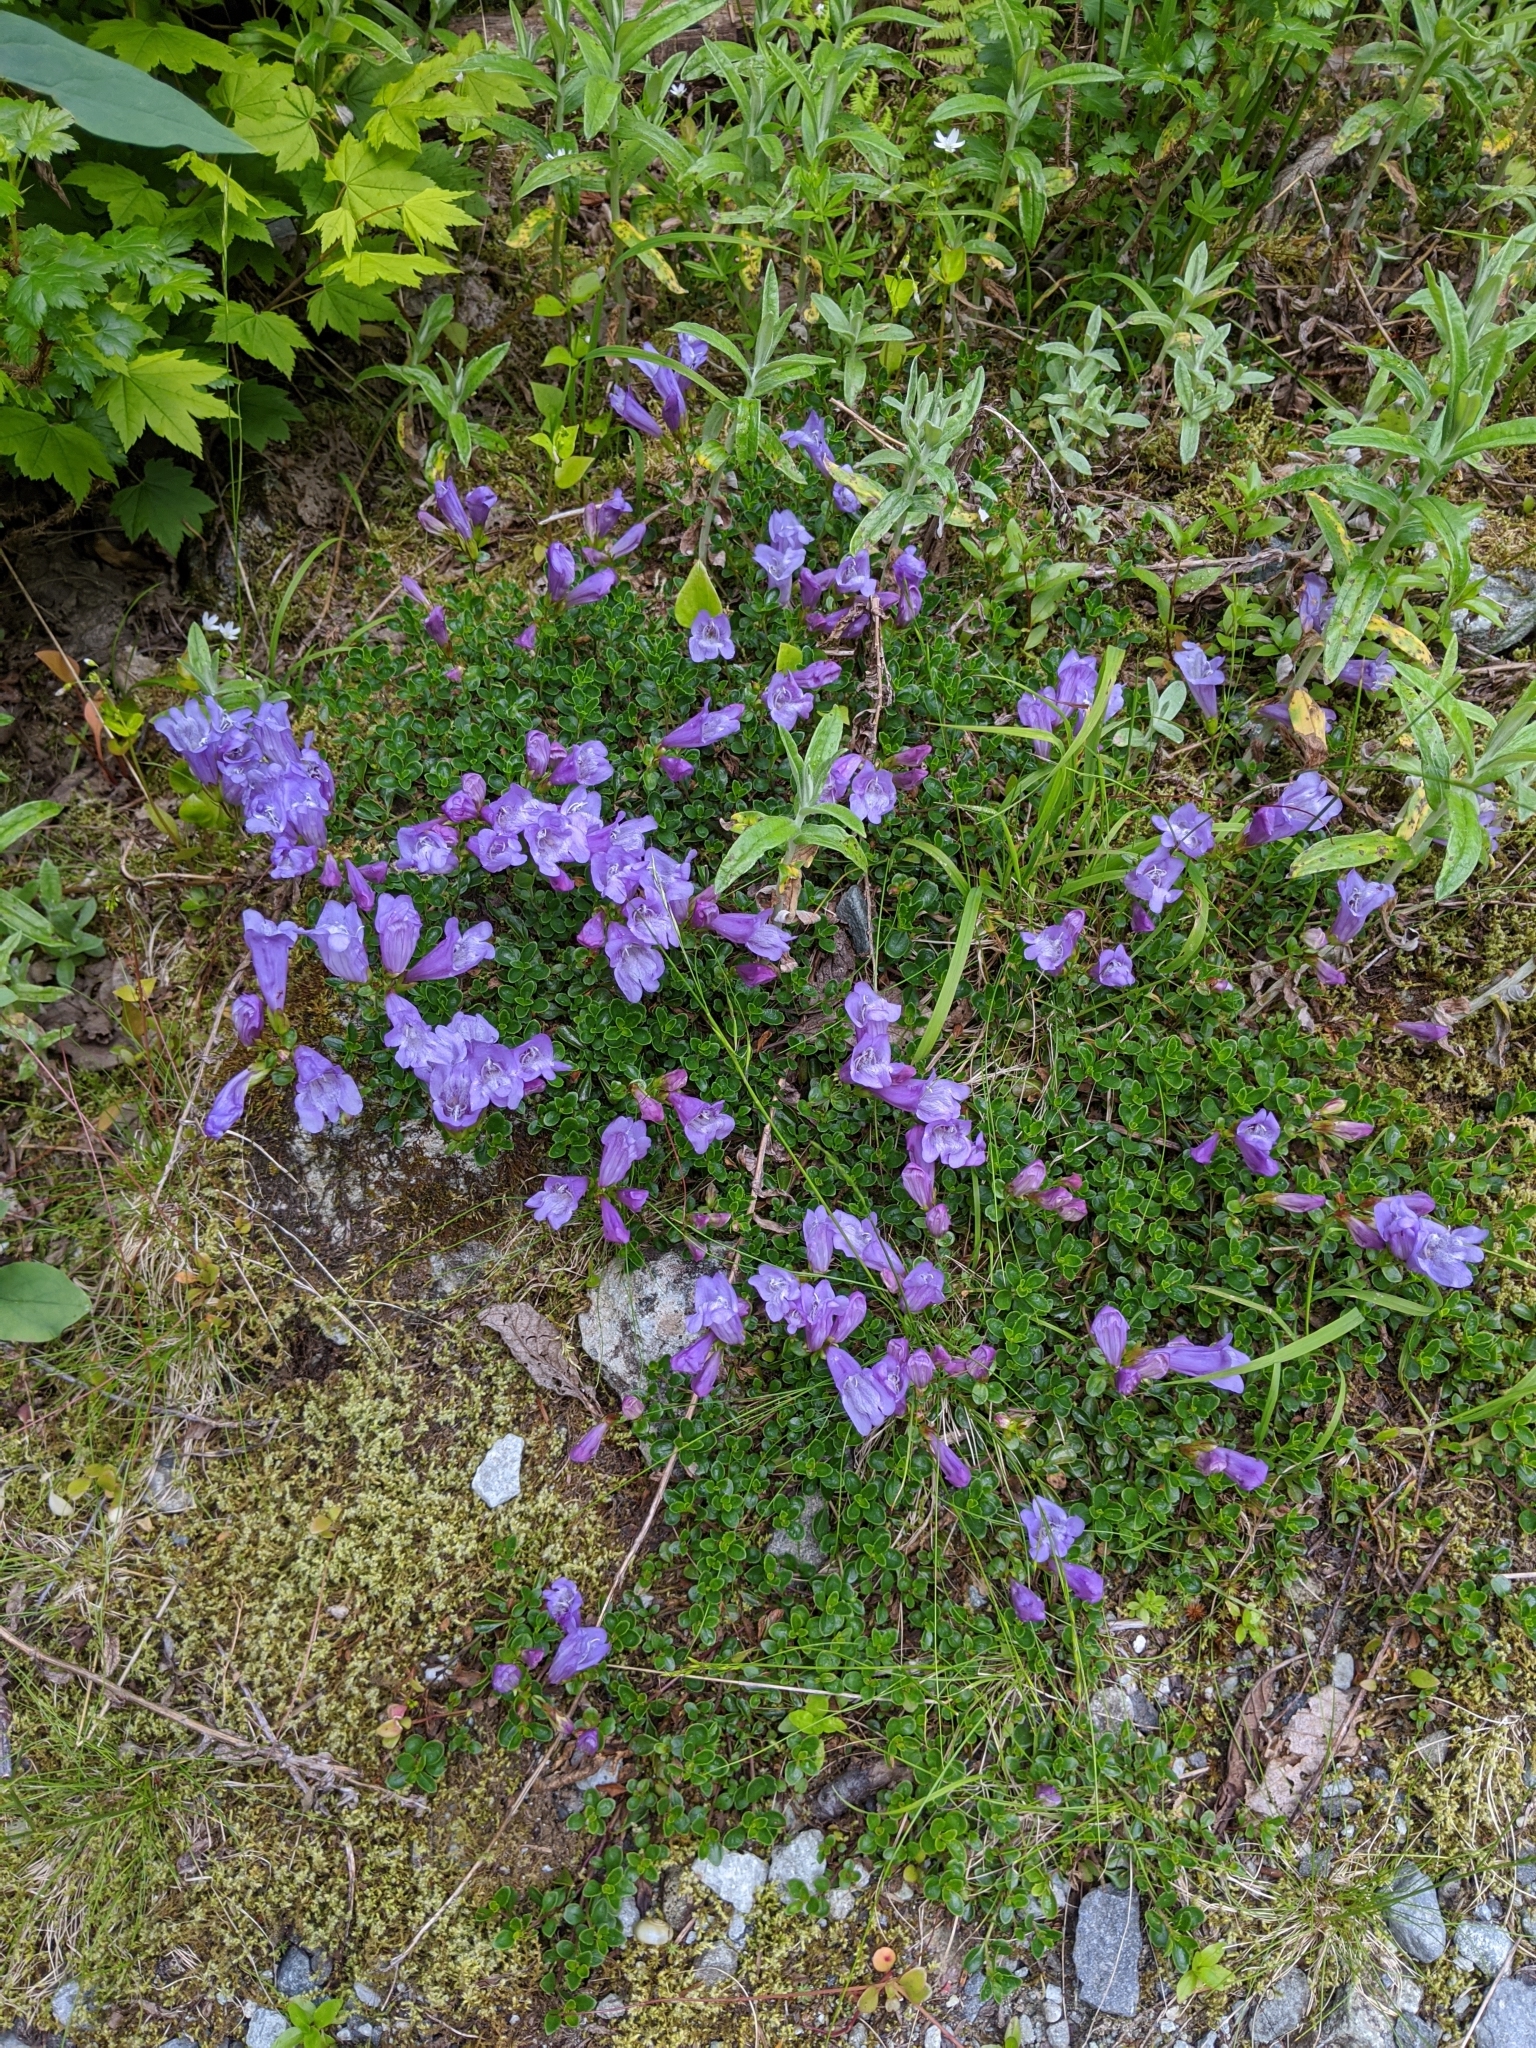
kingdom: Plantae
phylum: Tracheophyta
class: Magnoliopsida
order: Lamiales
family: Plantaginaceae
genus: Penstemon
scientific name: Penstemon davidsonii
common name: Davidson's penstemon
